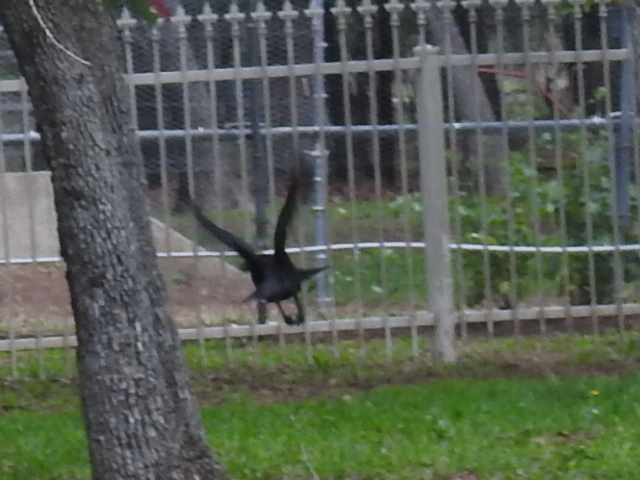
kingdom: Animalia
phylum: Chordata
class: Aves
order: Passeriformes
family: Corvidae
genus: Corvus
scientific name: Corvus brachyrhynchos
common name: American crow
